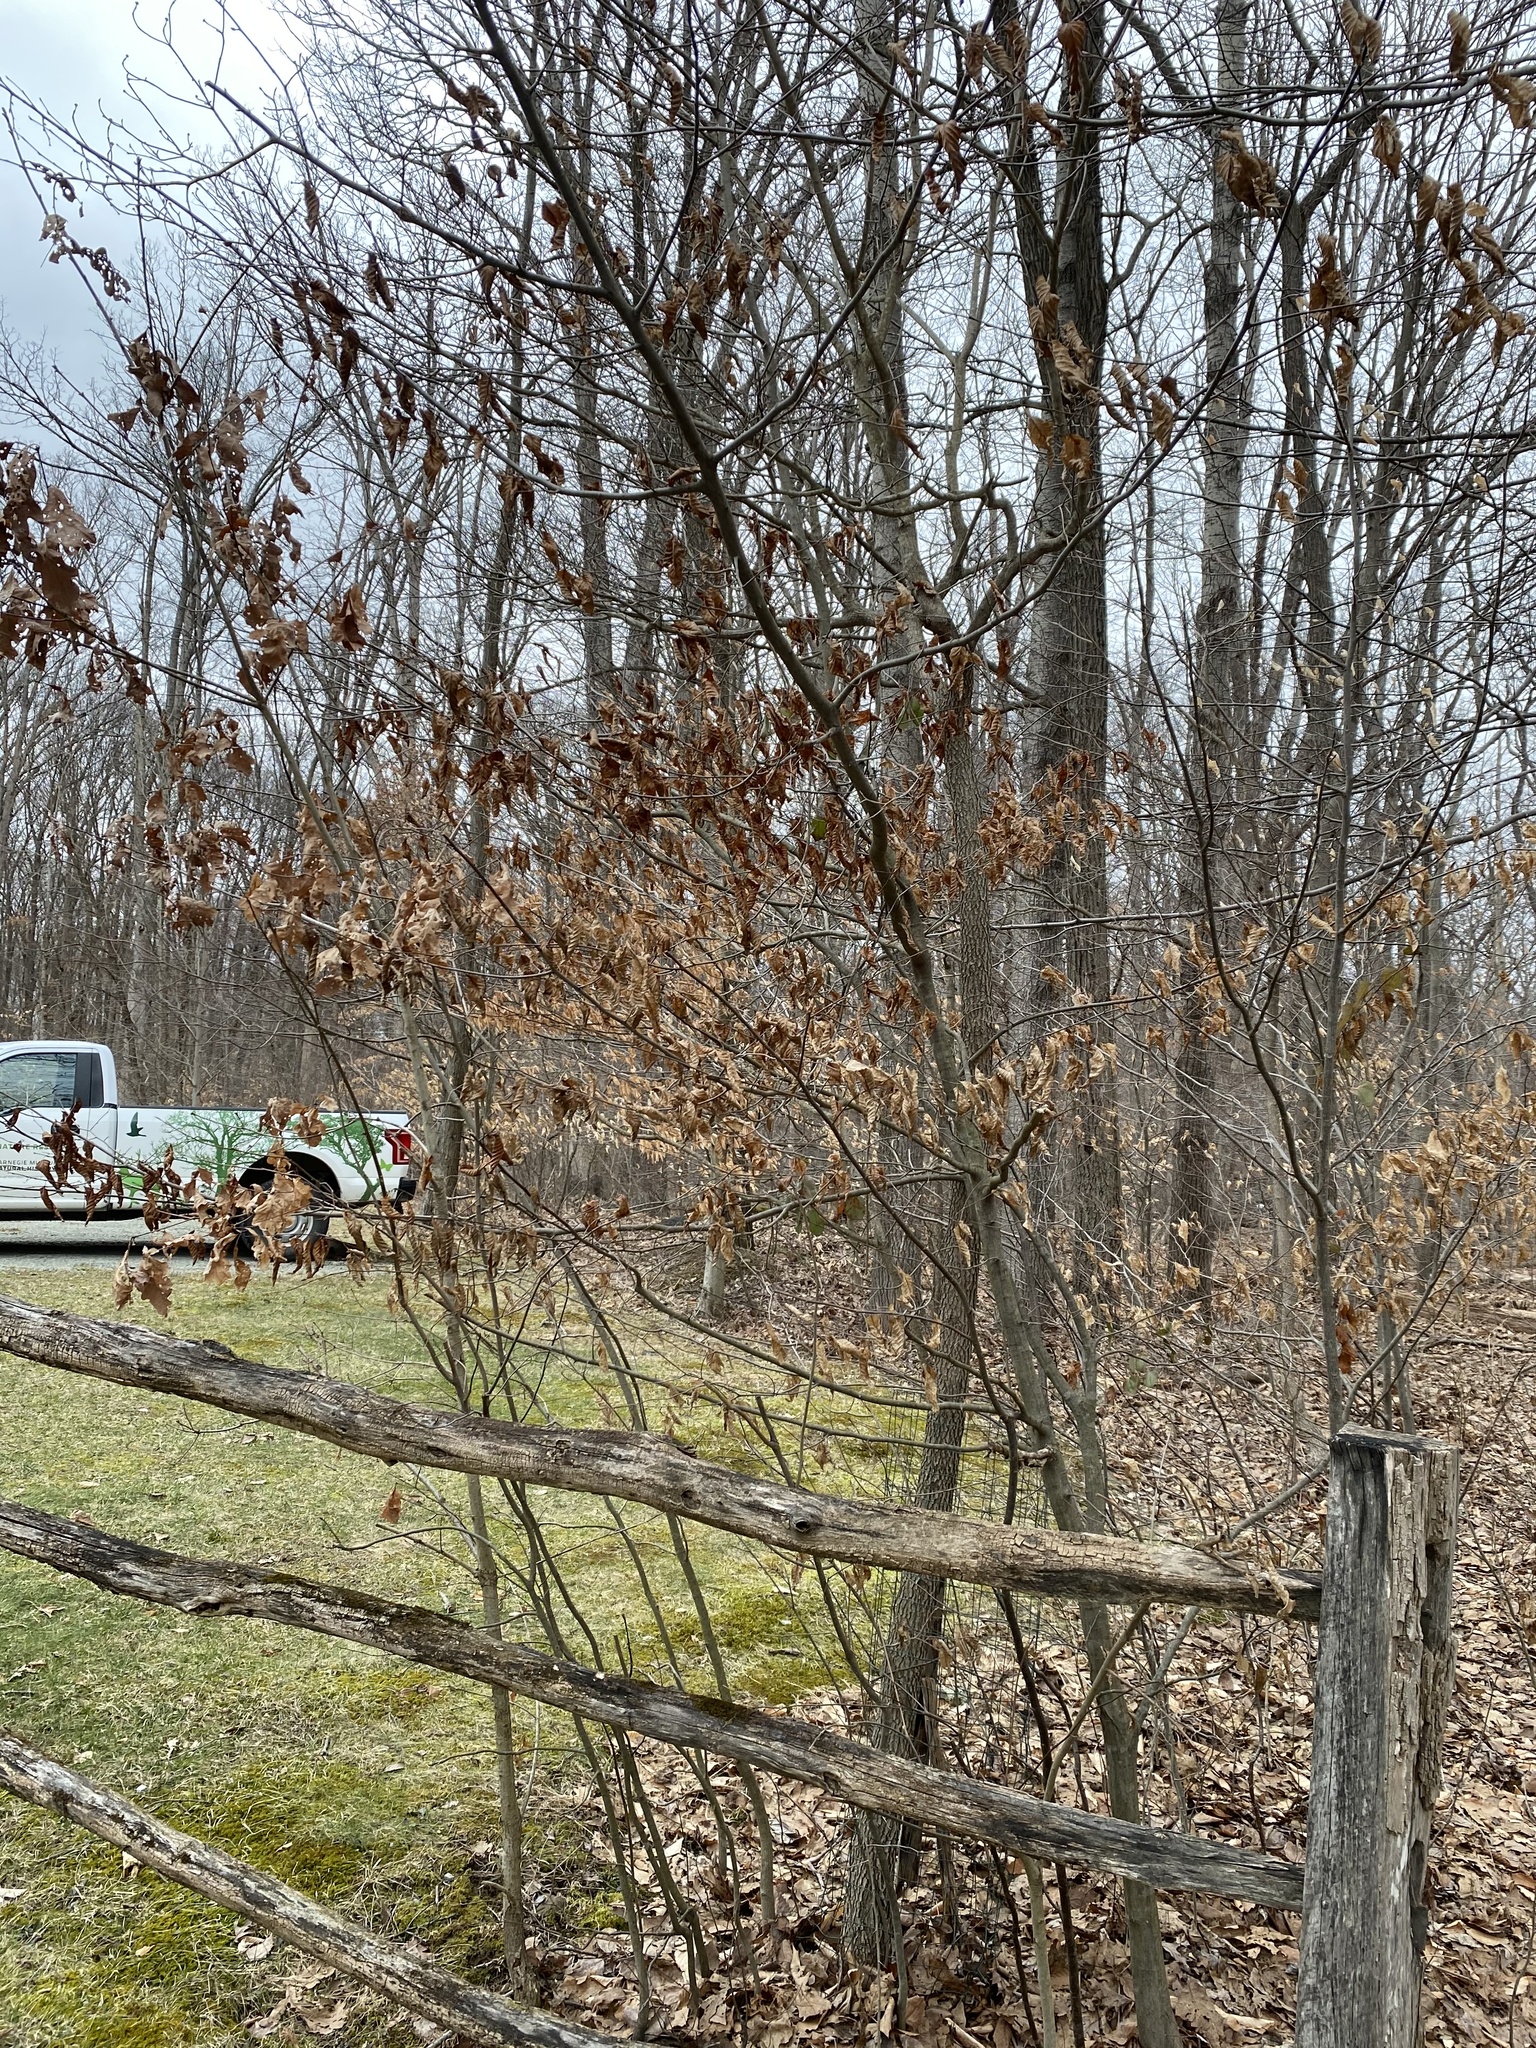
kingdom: Plantae
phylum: Tracheophyta
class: Magnoliopsida
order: Fagales
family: Betulaceae
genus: Carpinus
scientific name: Carpinus caroliniana
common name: American hornbeam
